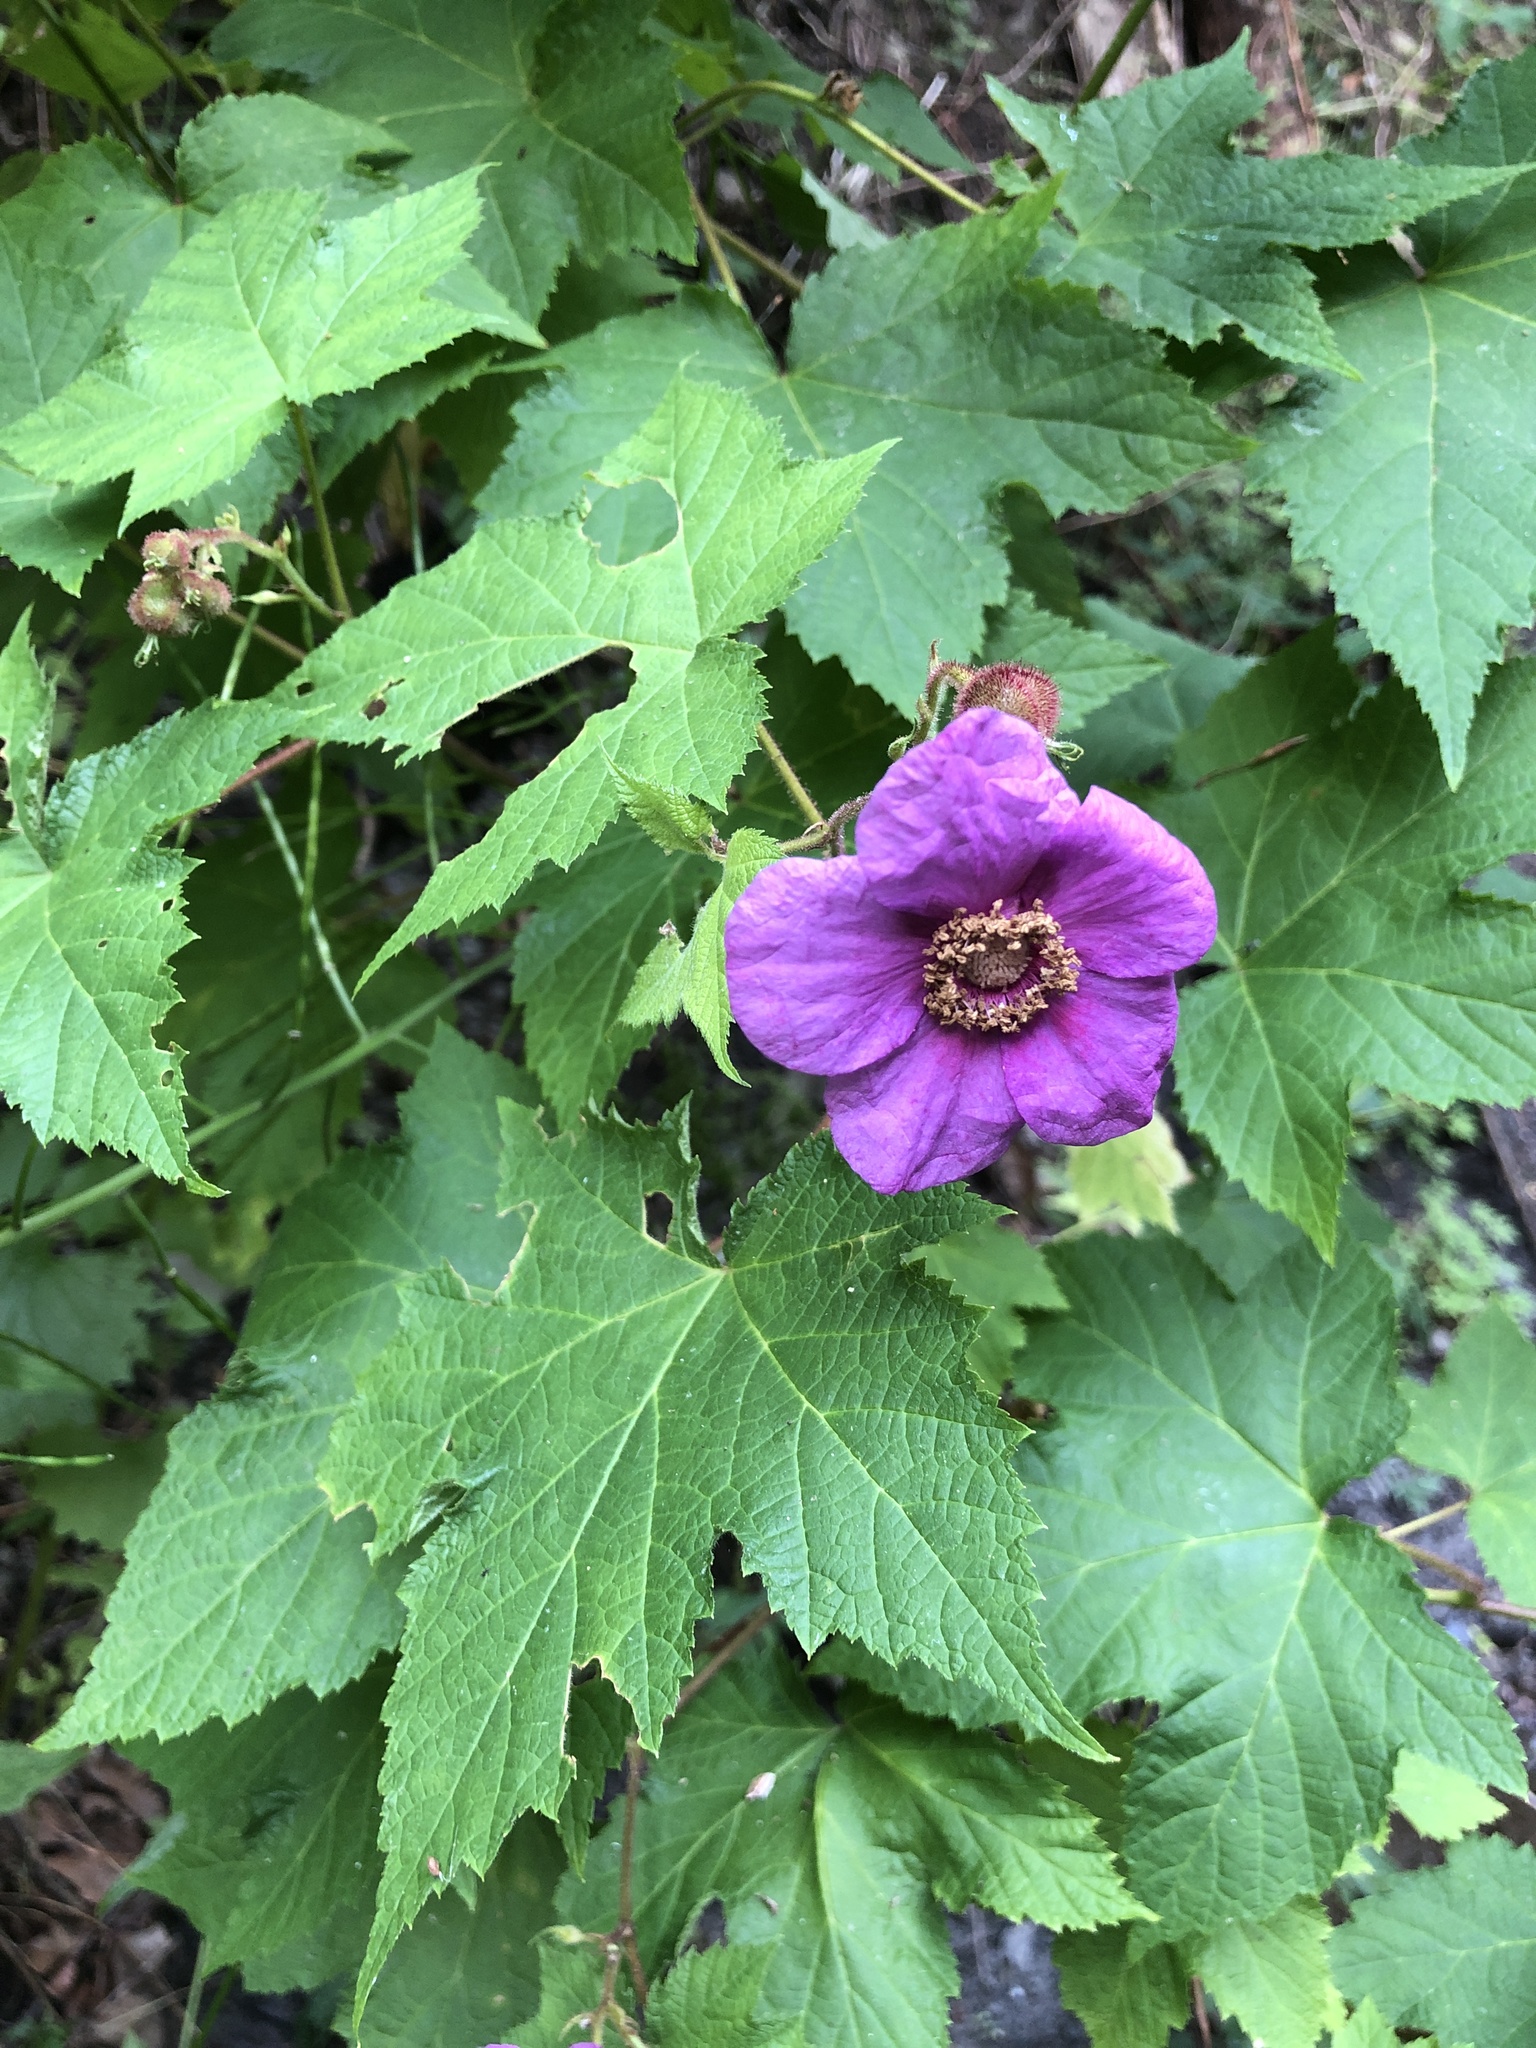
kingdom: Plantae
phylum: Tracheophyta
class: Magnoliopsida
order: Rosales
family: Rosaceae
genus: Rubus
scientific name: Rubus odoratus
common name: Purple-flowered raspberry
